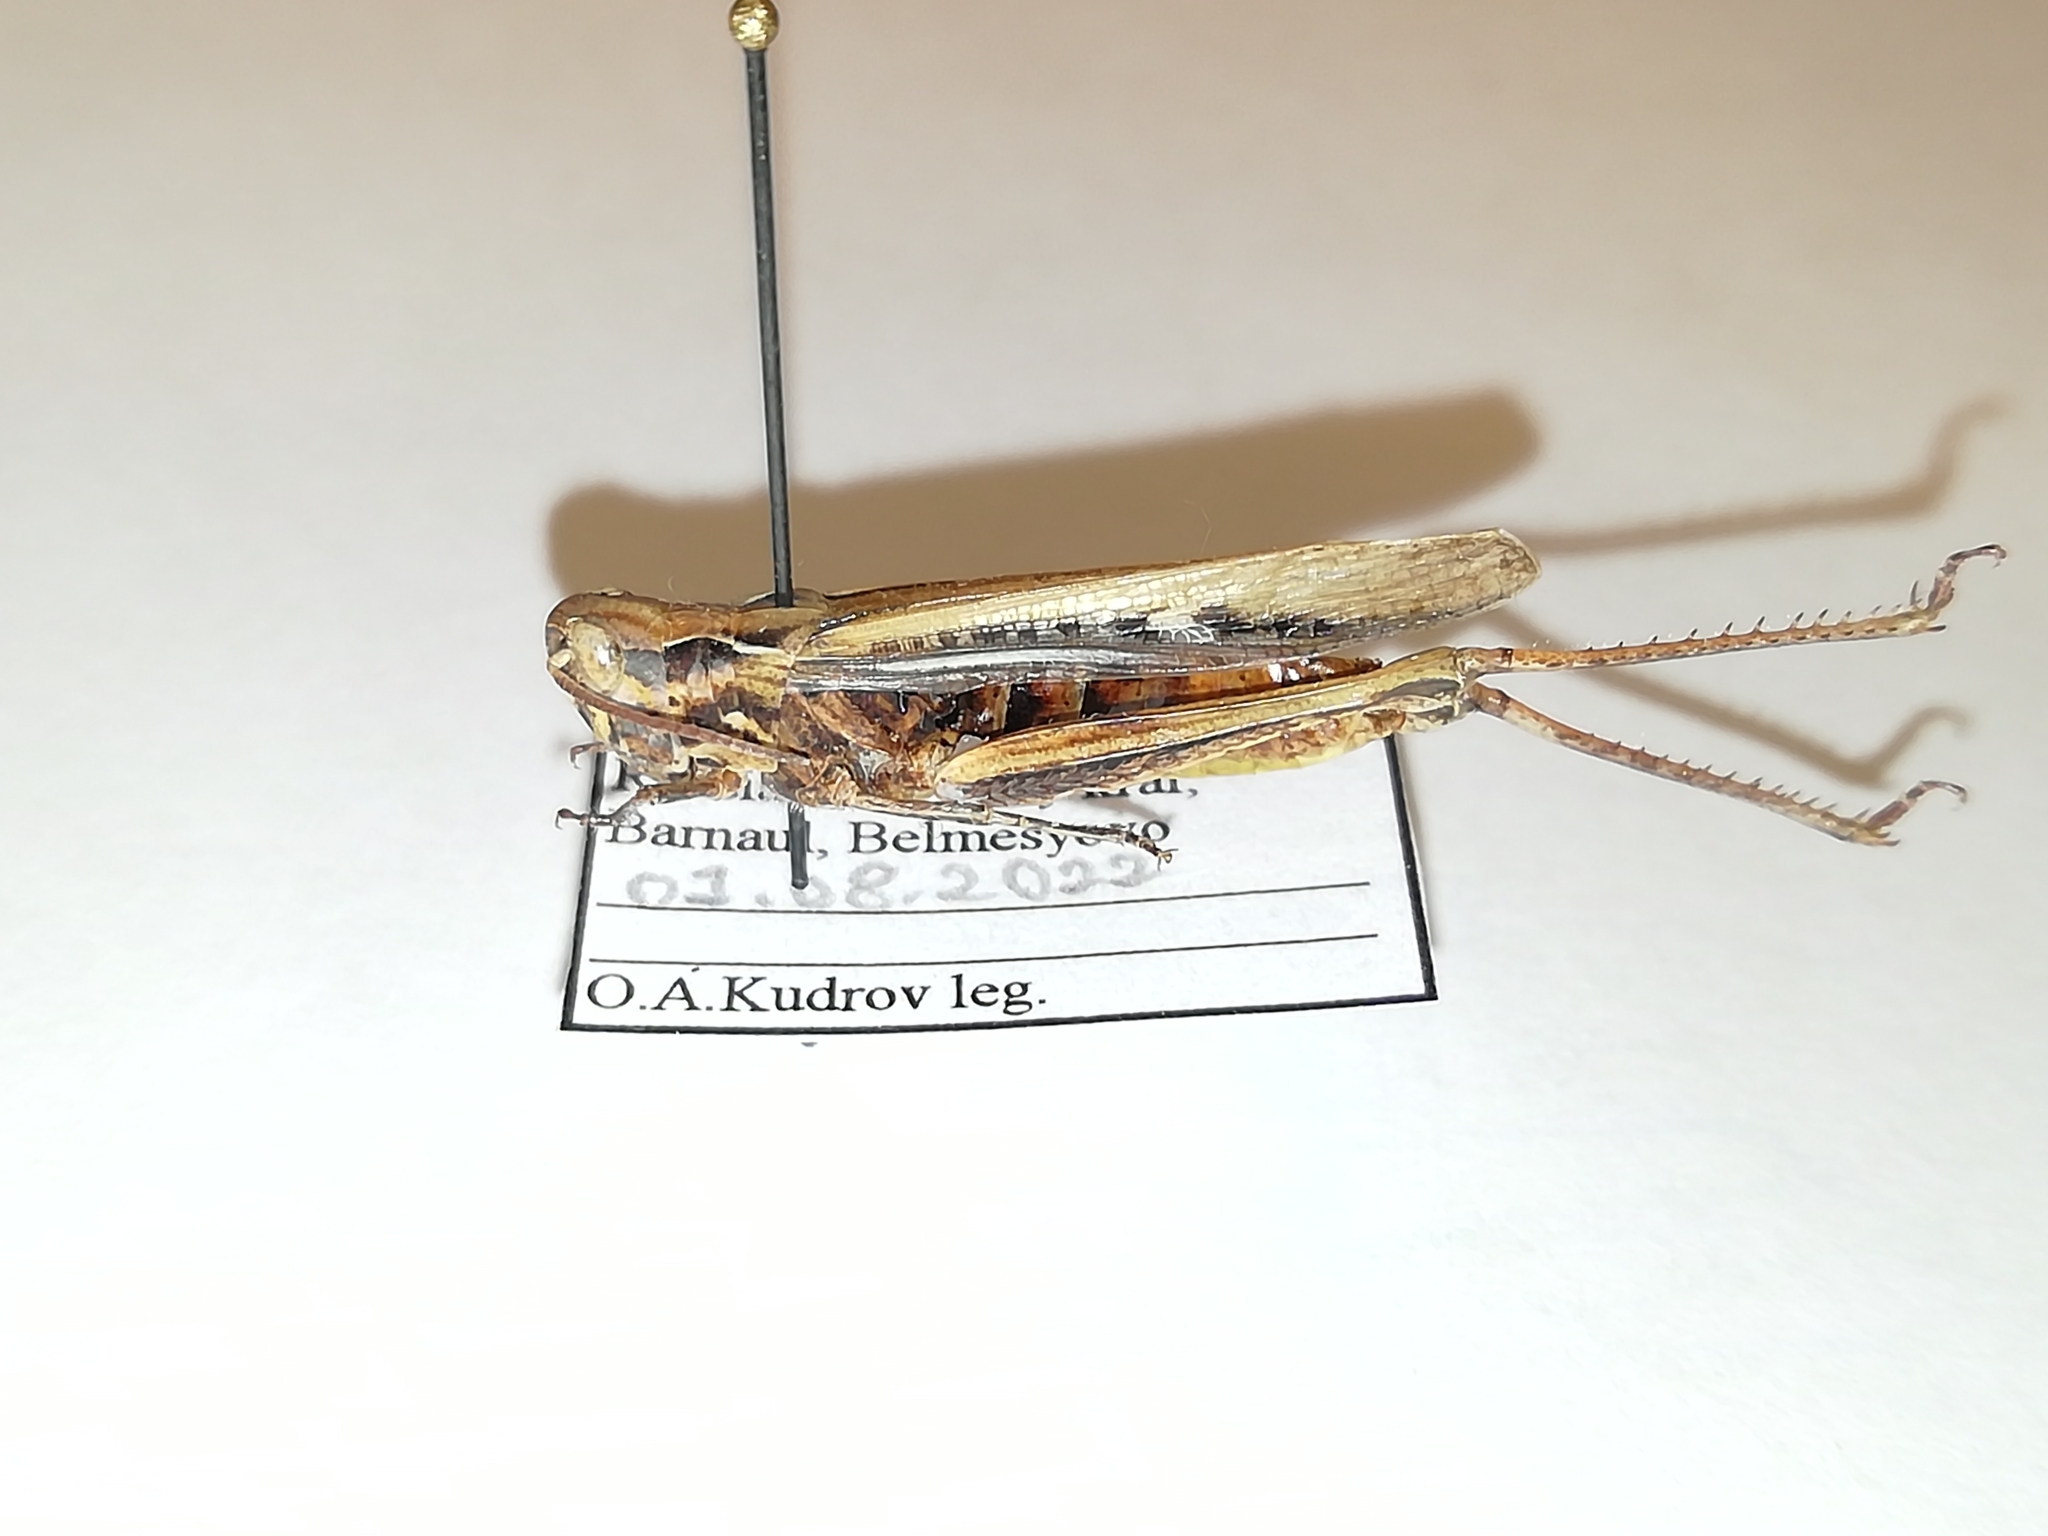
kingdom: Animalia
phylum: Arthropoda
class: Insecta
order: Orthoptera
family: Acrididae
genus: Chorthippus
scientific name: Chorthippus miramae
